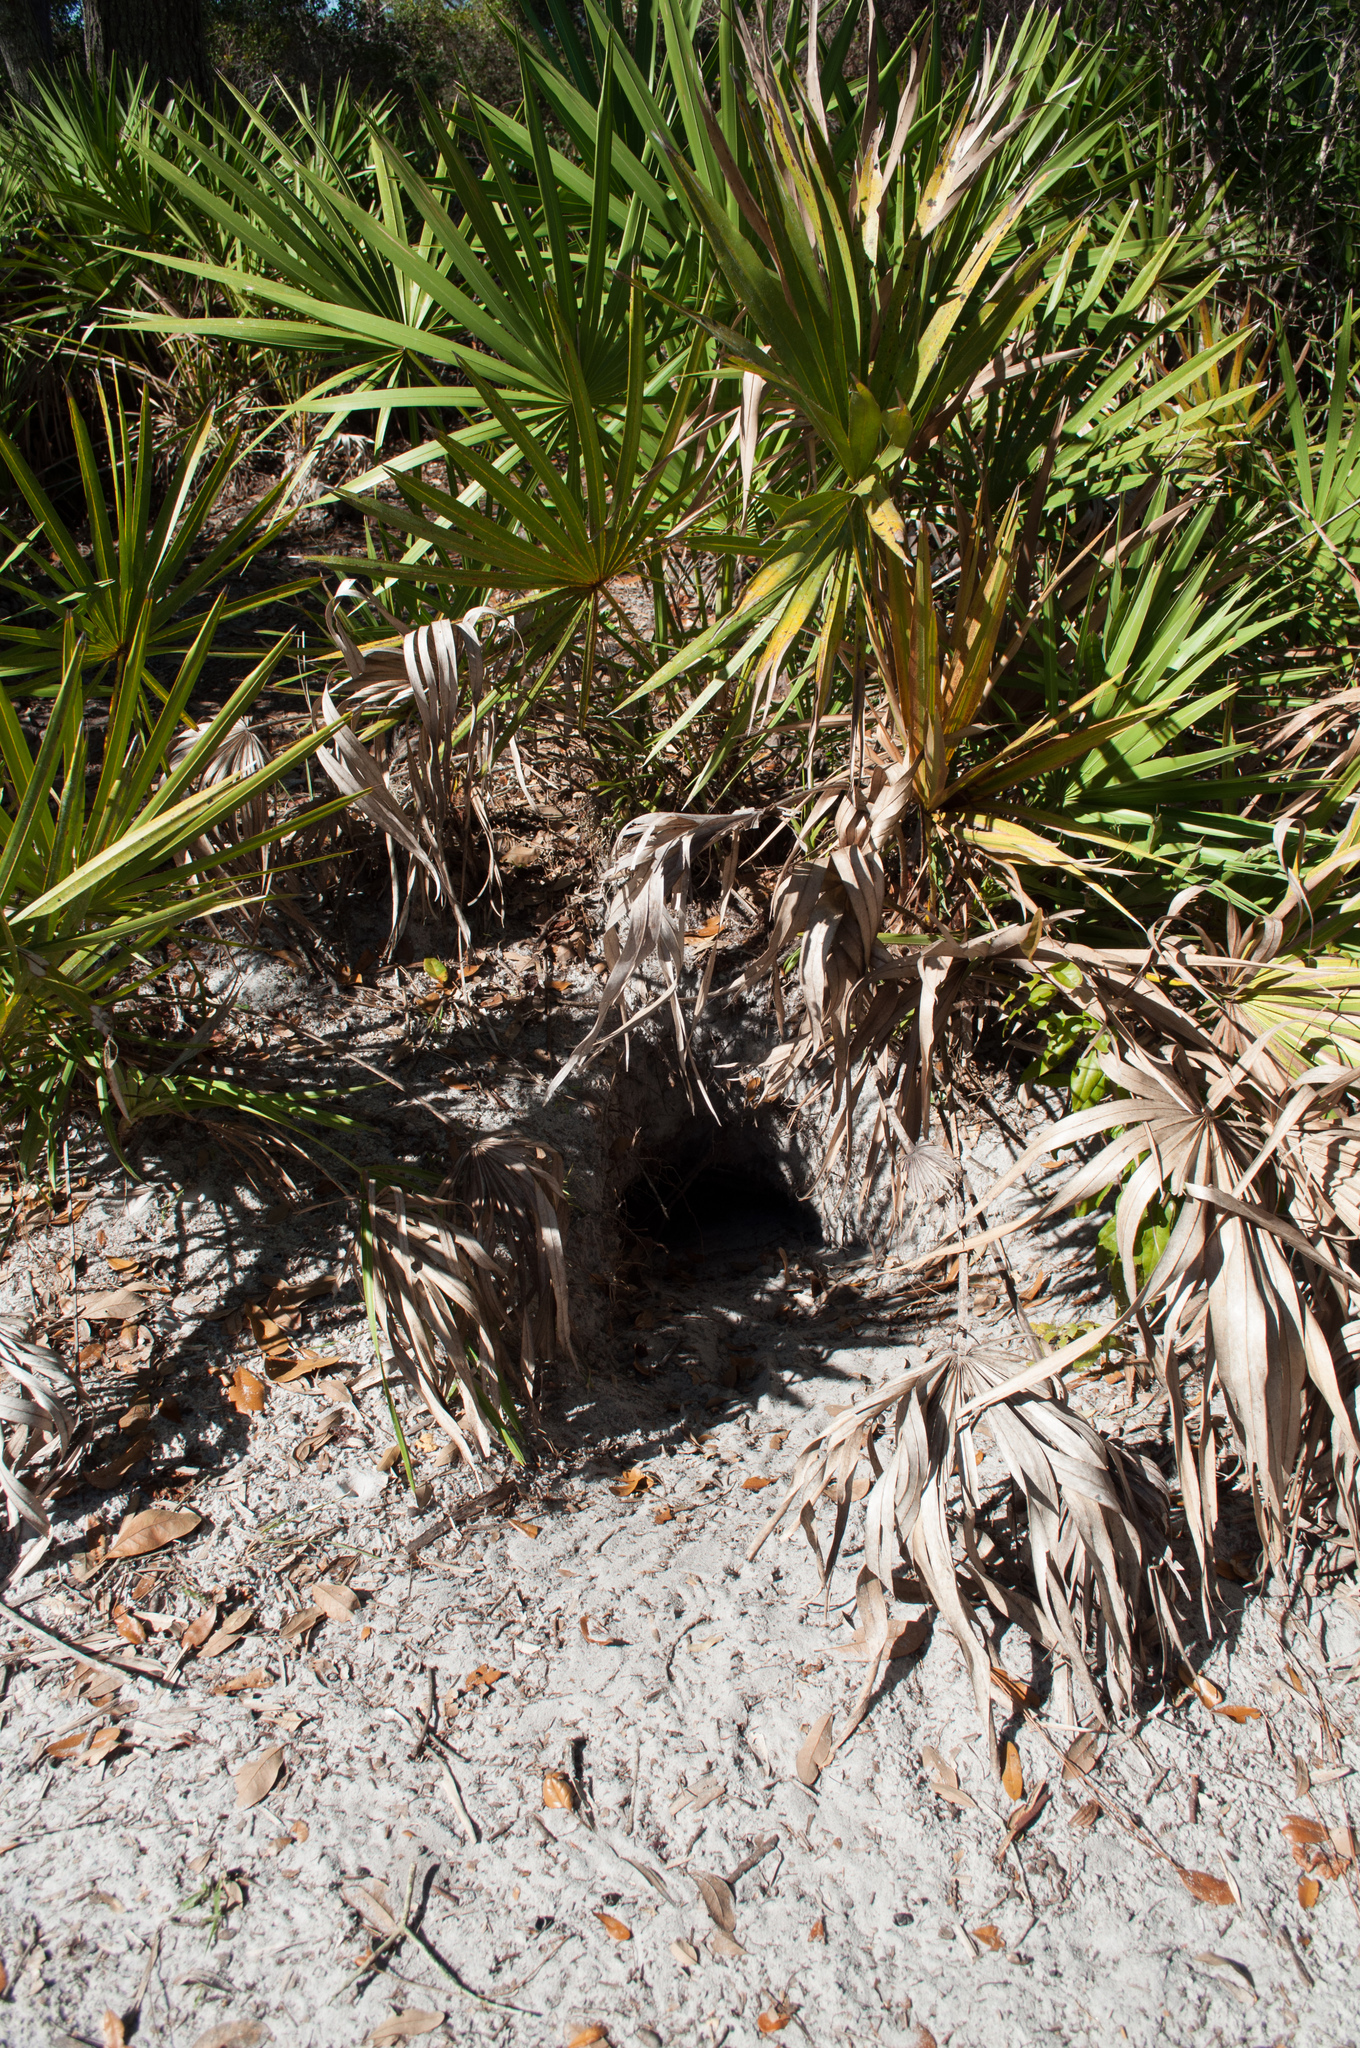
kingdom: Animalia
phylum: Chordata
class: Testudines
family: Testudinidae
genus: Gopherus
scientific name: Gopherus polyphemus
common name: Florida gopher tortoise
